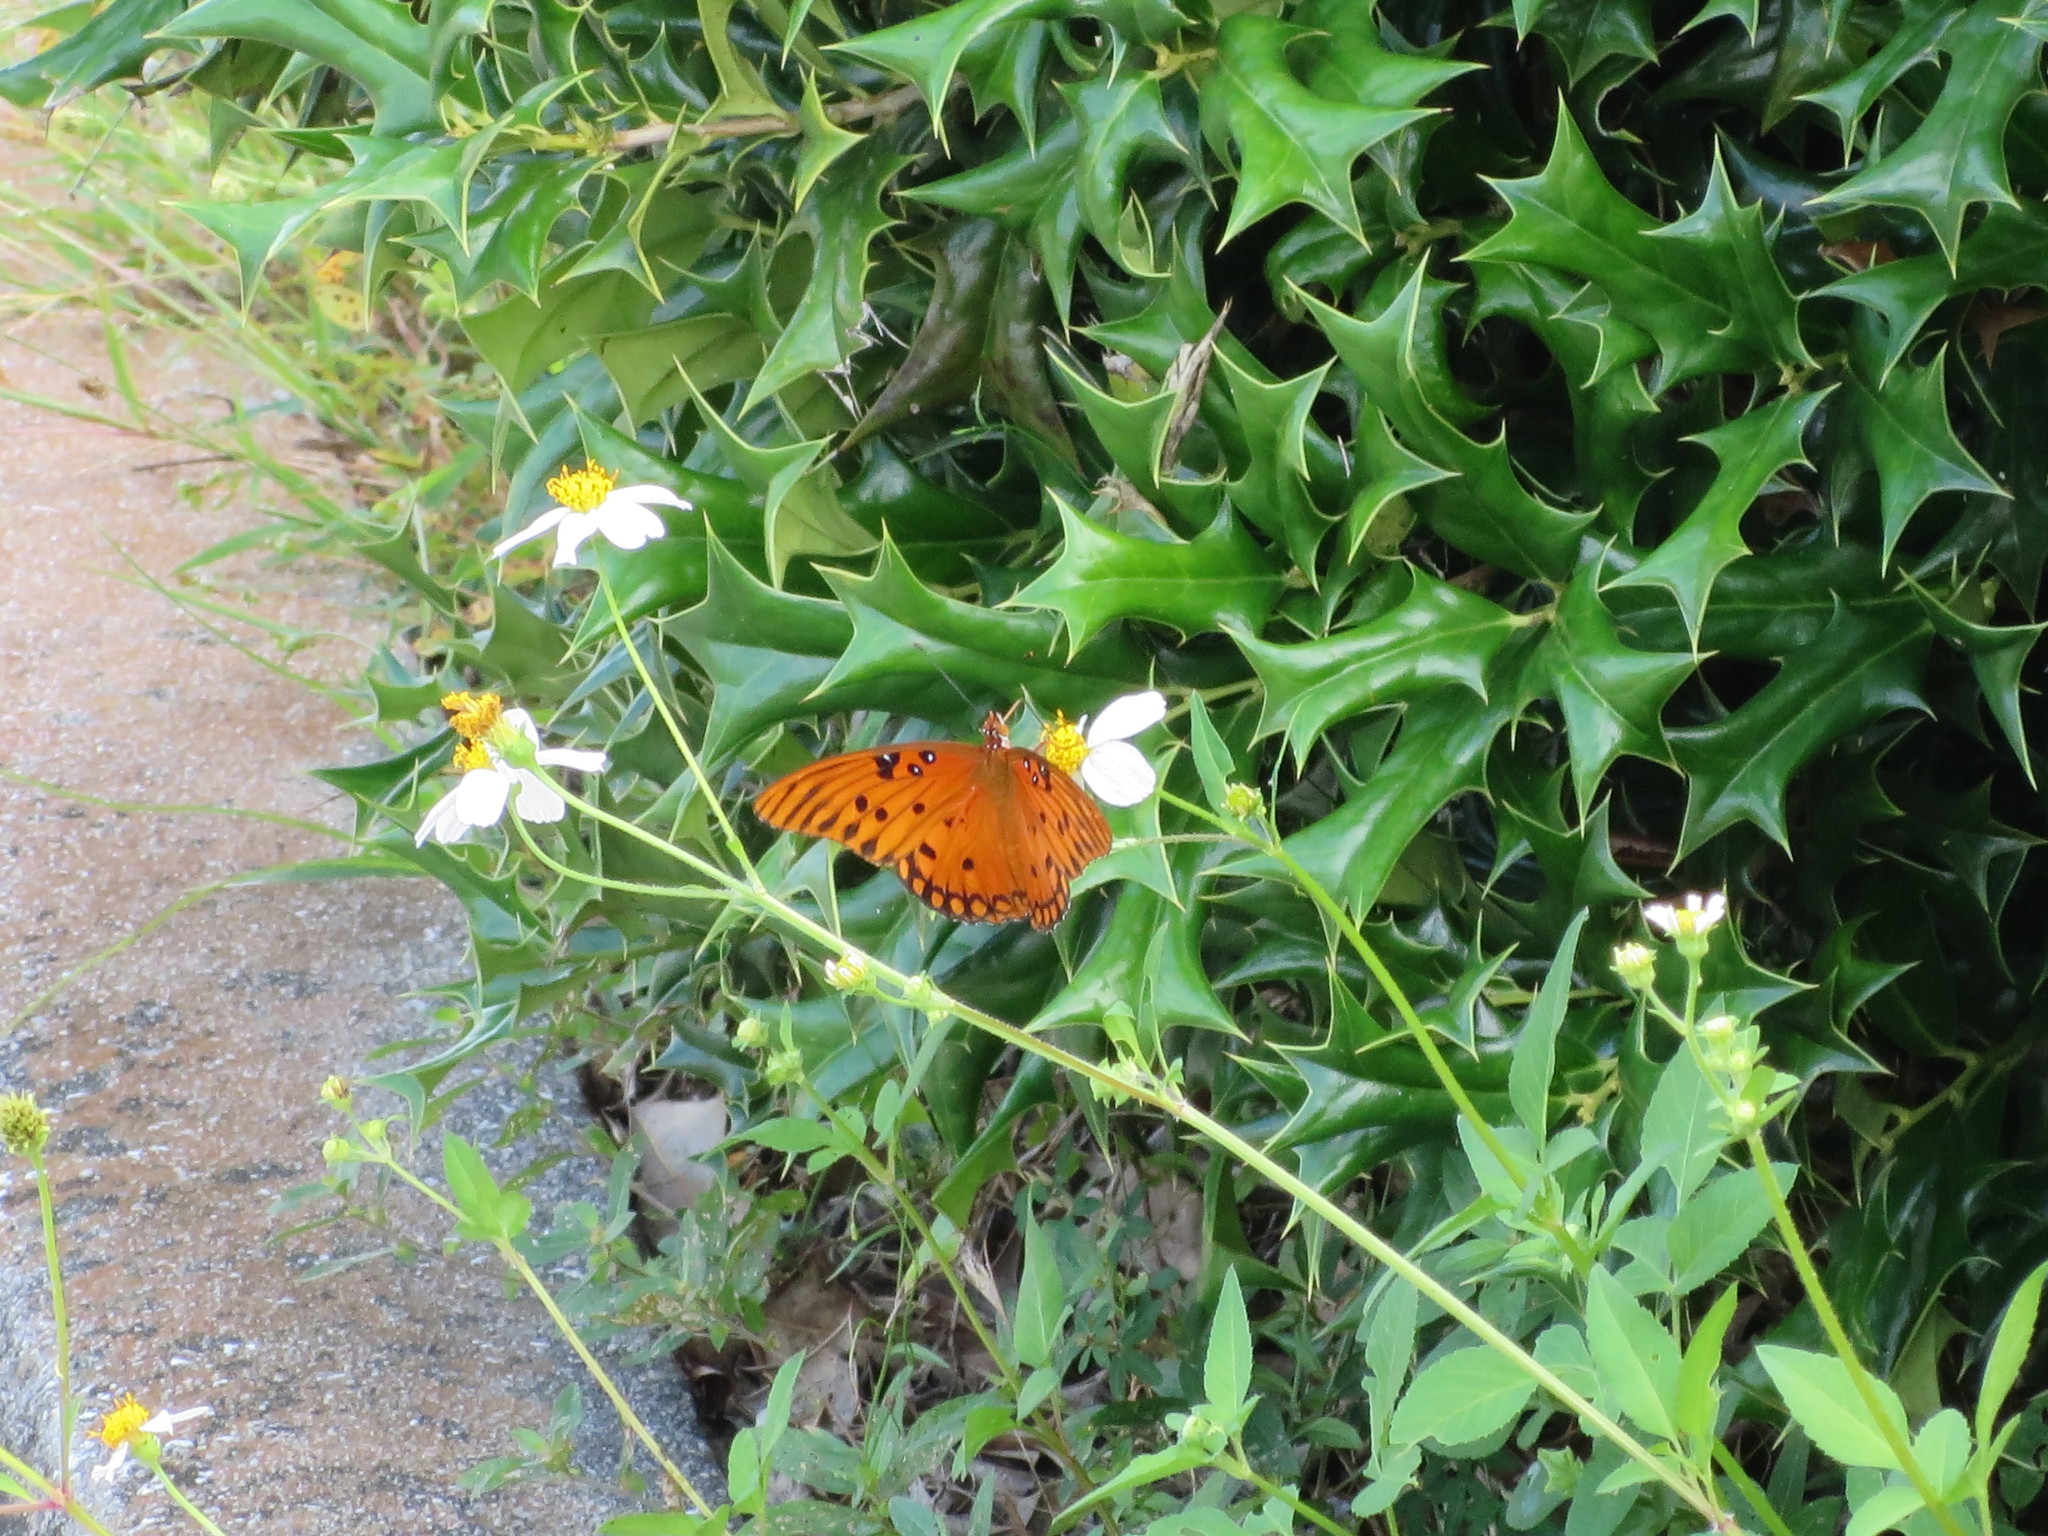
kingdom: Animalia
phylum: Arthropoda
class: Insecta
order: Lepidoptera
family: Nymphalidae
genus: Dione
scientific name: Dione vanillae
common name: Gulf fritillary
